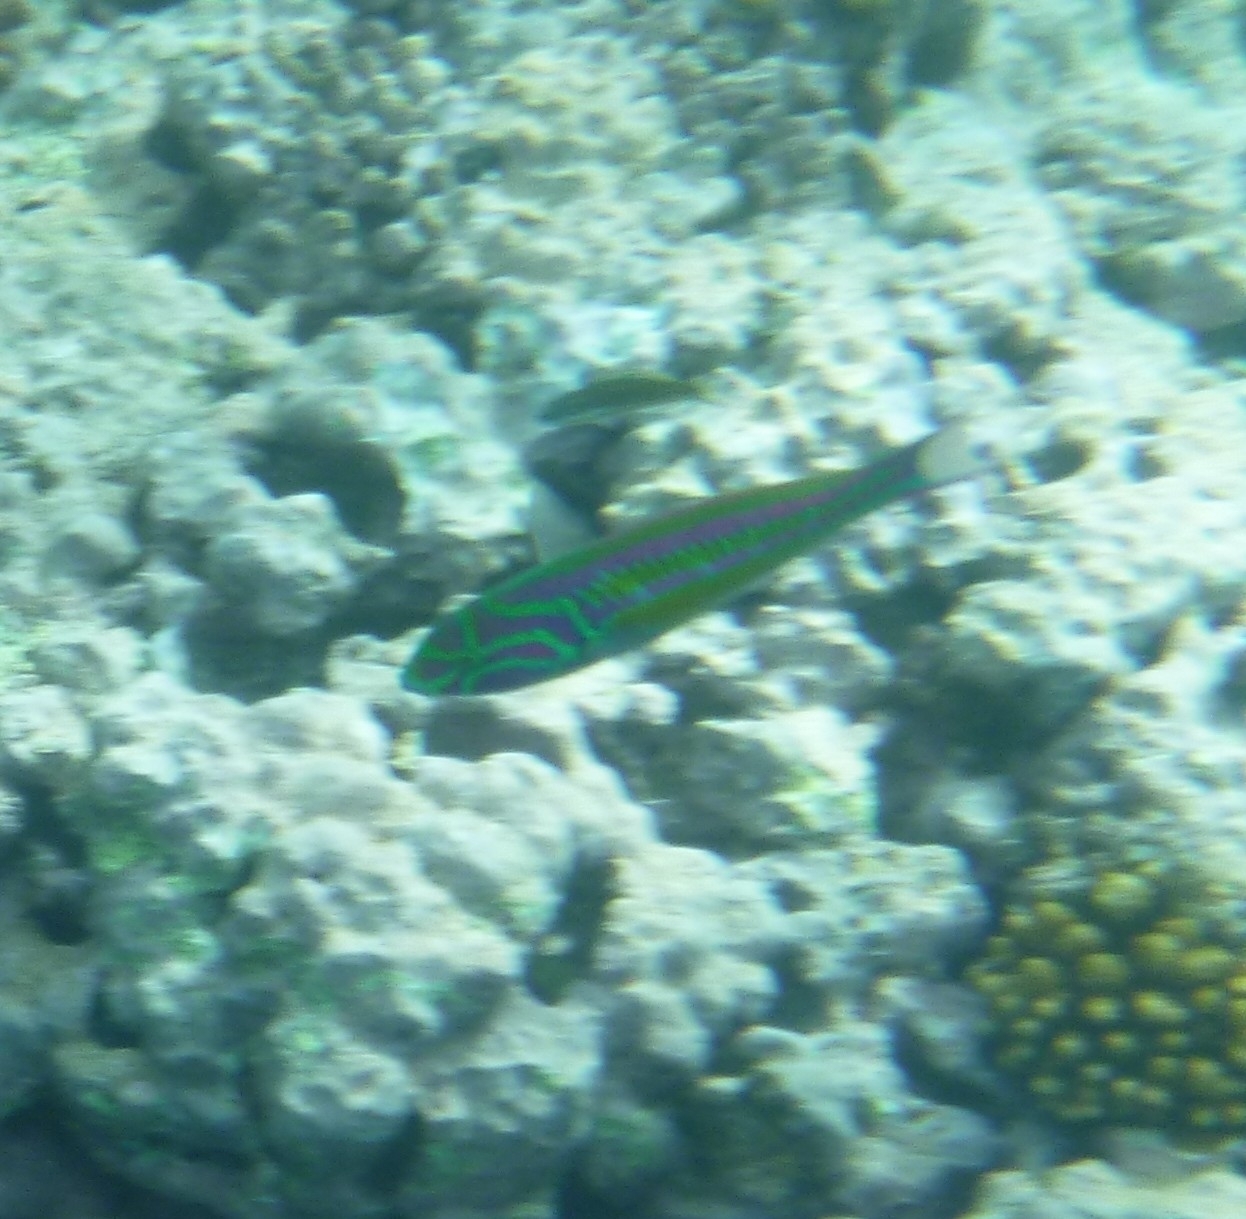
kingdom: Animalia
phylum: Chordata
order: Perciformes
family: Labridae
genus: Thalassoma
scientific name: Thalassoma quinquevittatum
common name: Five striped surge wrasse
